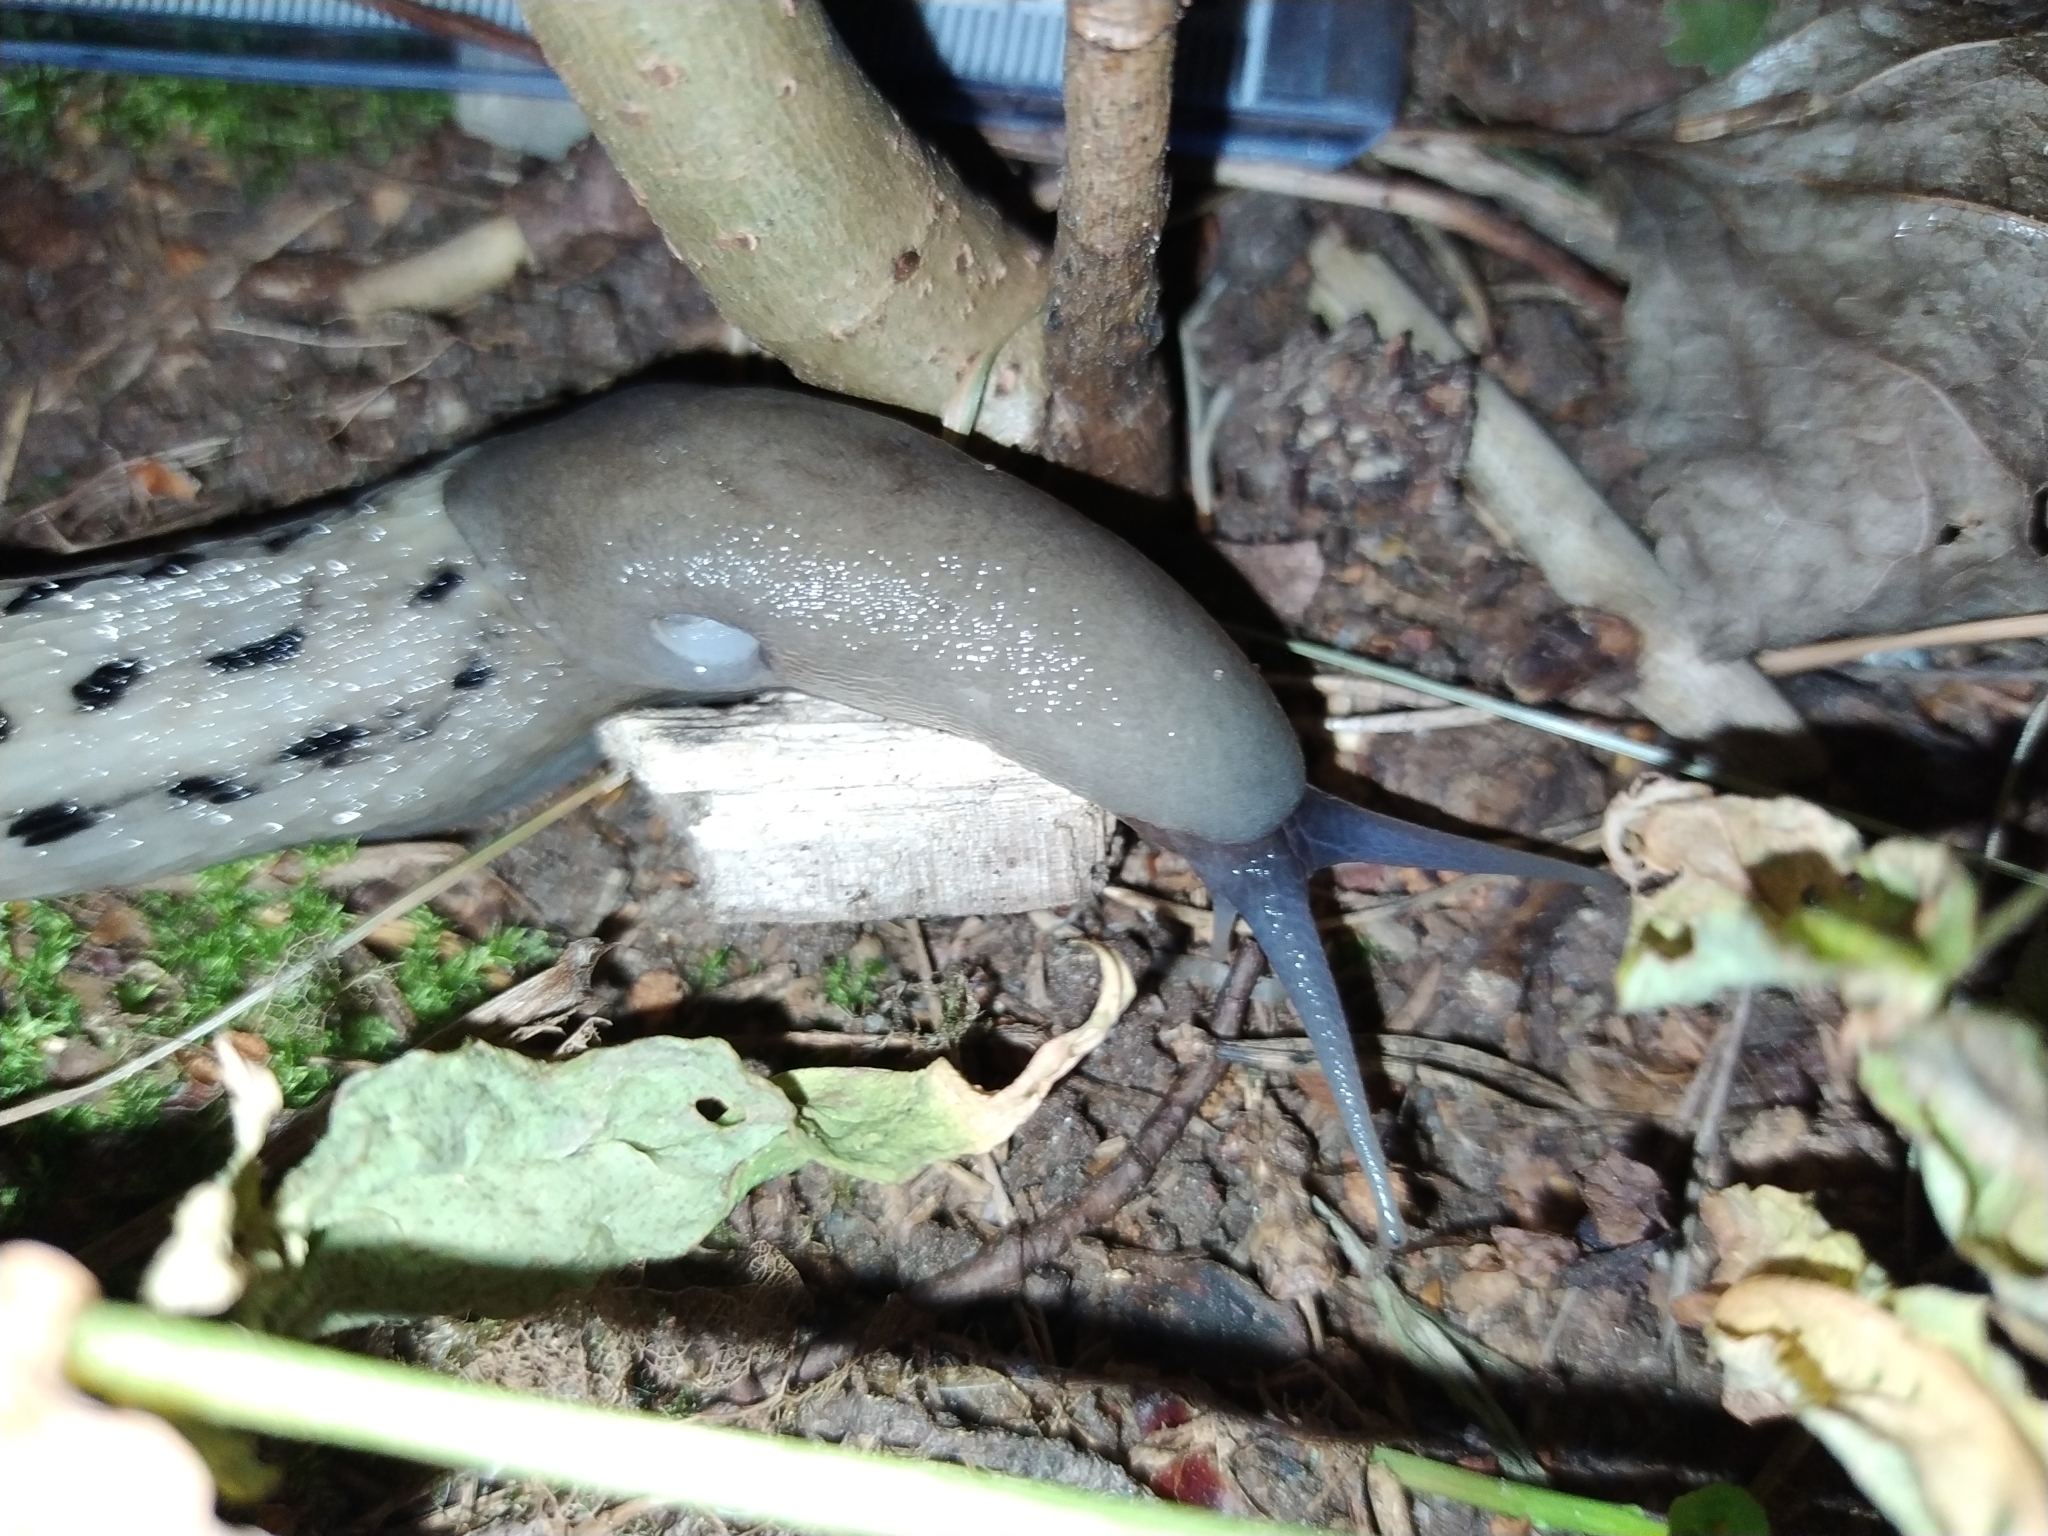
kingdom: Animalia
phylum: Mollusca
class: Gastropoda
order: Stylommatophora
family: Limacidae
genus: Limax
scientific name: Limax cinereoniger
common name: Ash-black slug
